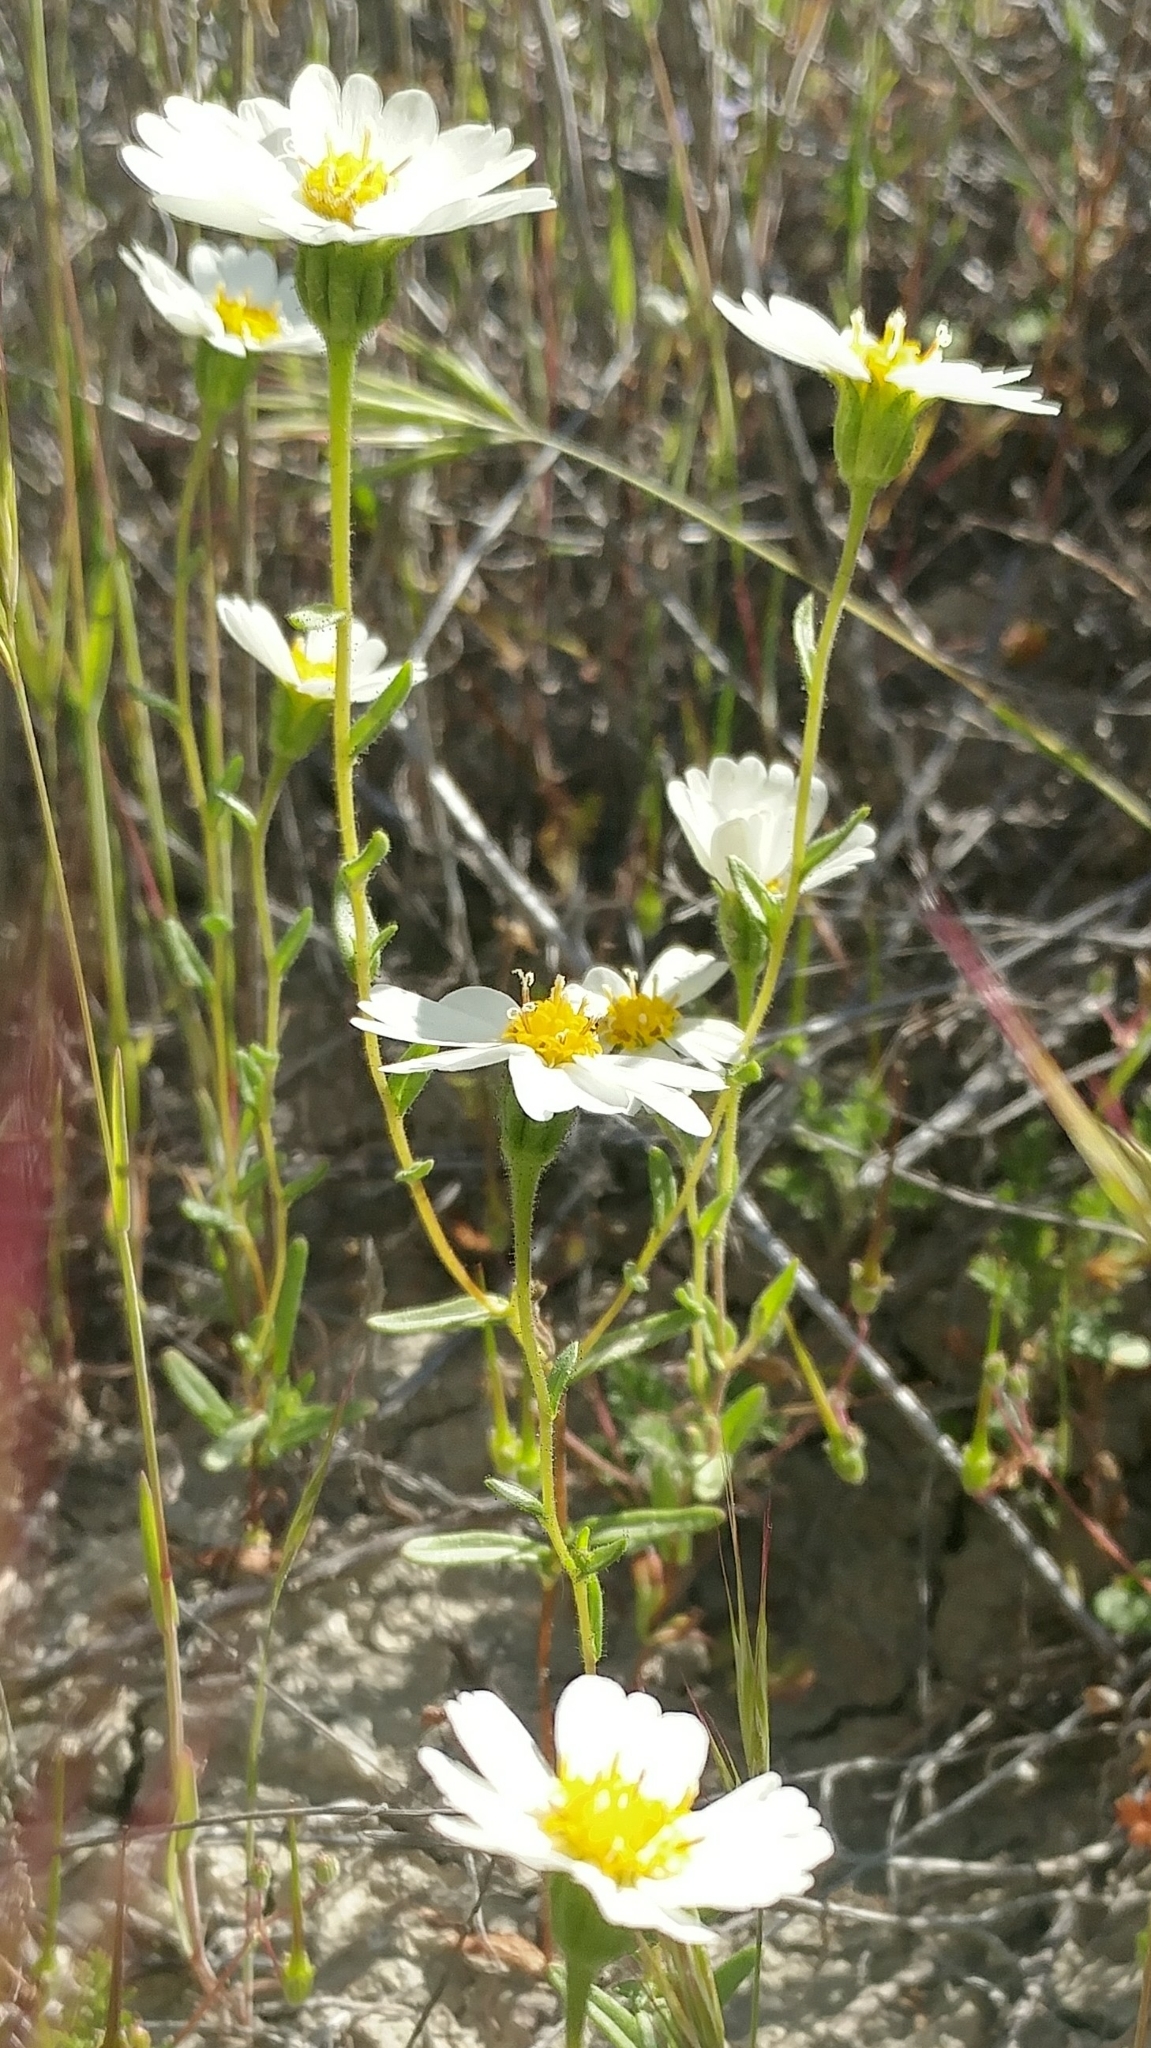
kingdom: Plantae
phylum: Tracheophyta
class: Magnoliopsida
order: Asterales
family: Asteraceae
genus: Layia
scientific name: Layia heterotricha
